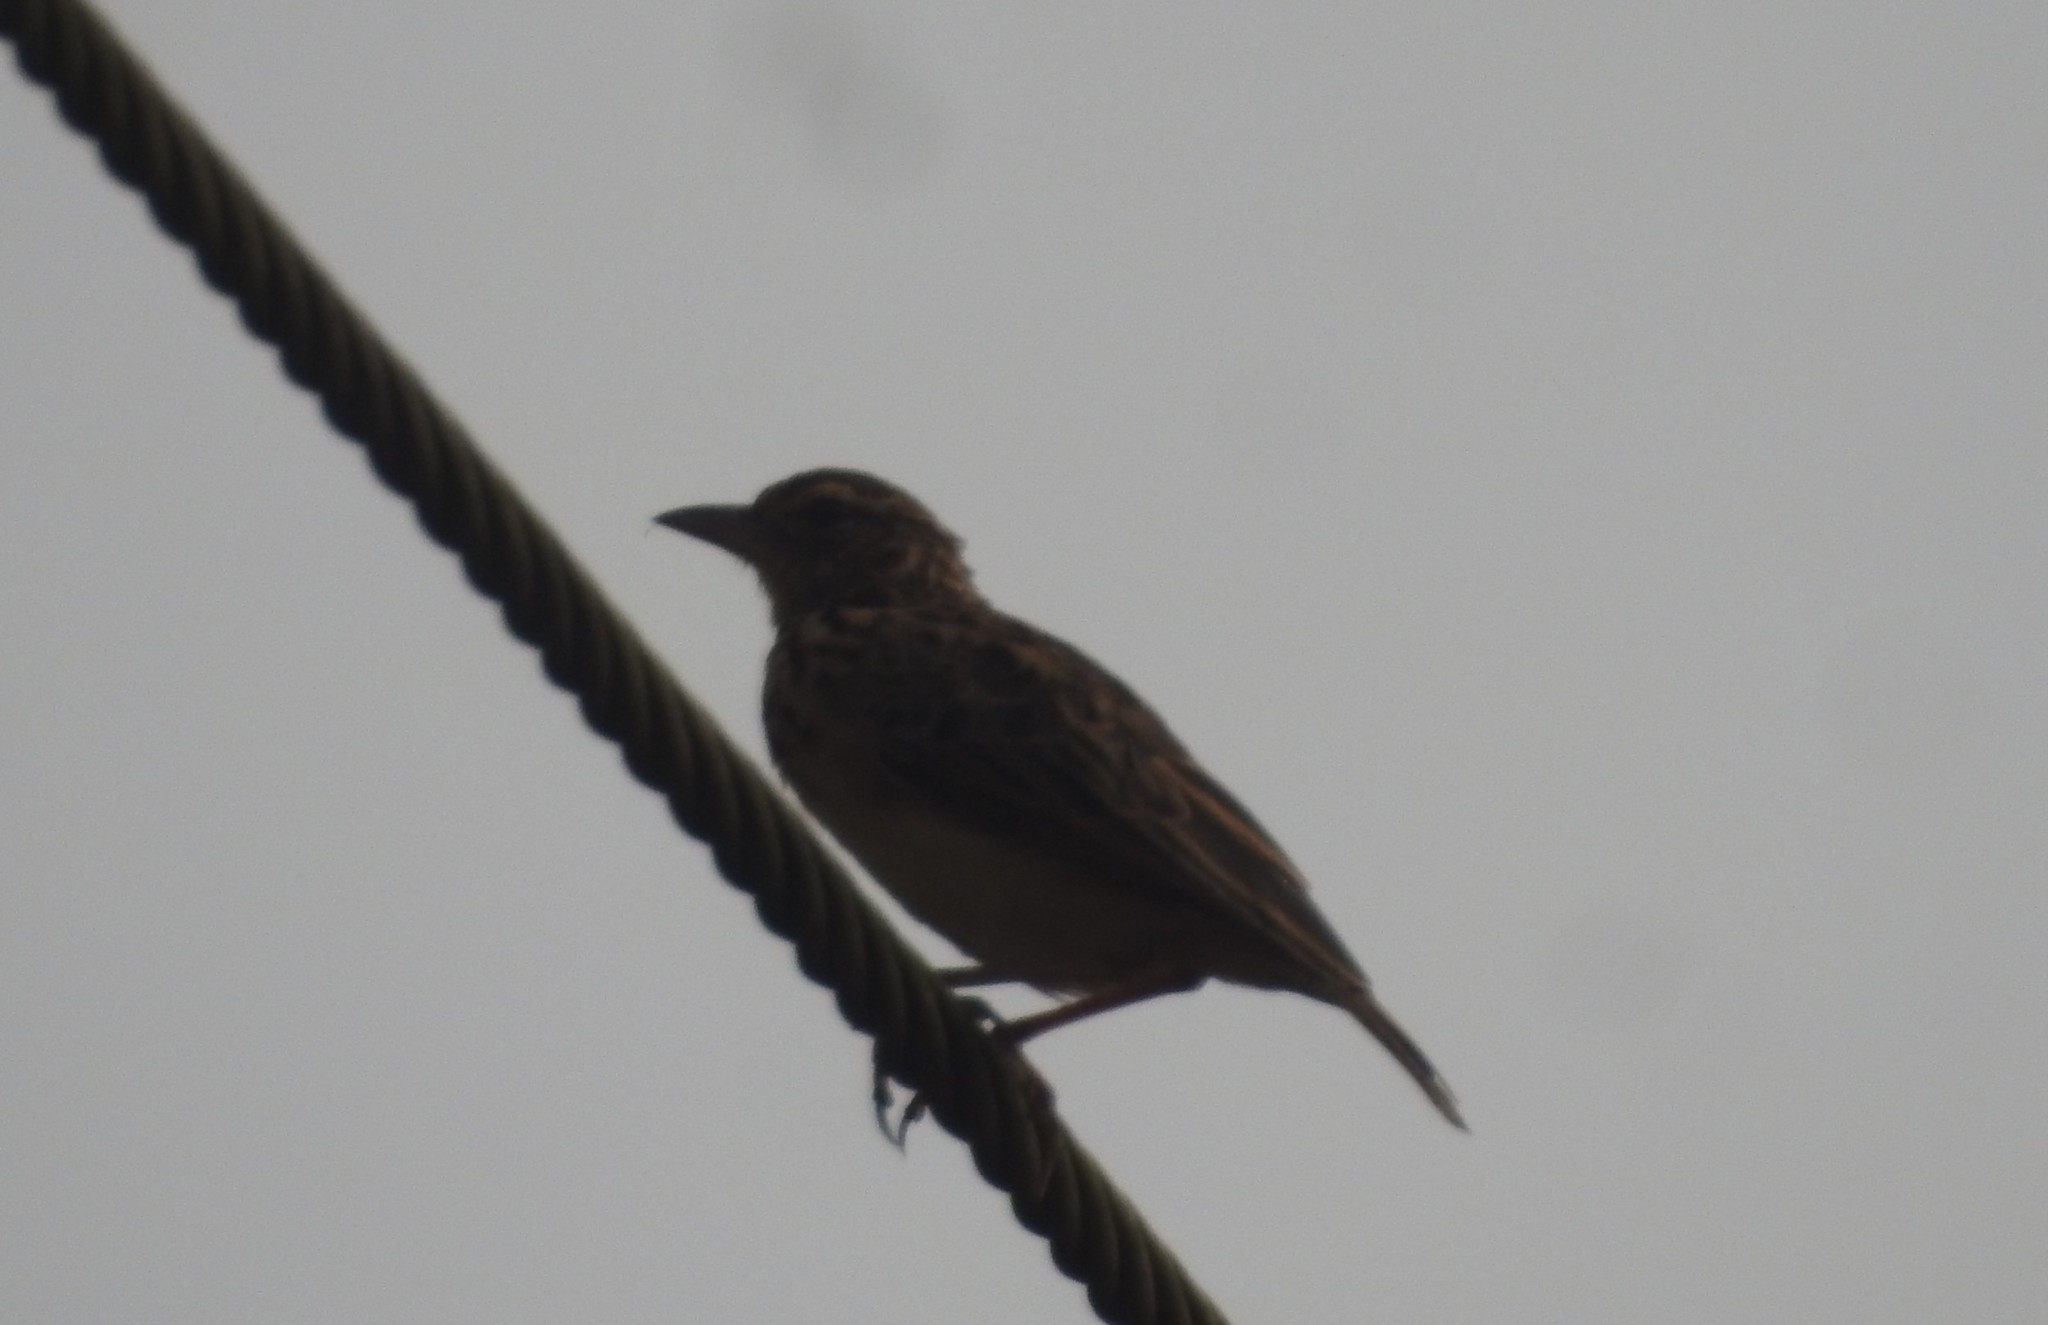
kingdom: Animalia
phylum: Chordata
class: Aves
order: Passeriformes
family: Alaudidae
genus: Mirafra
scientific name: Mirafra affinis
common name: Jerdon's bushlark
